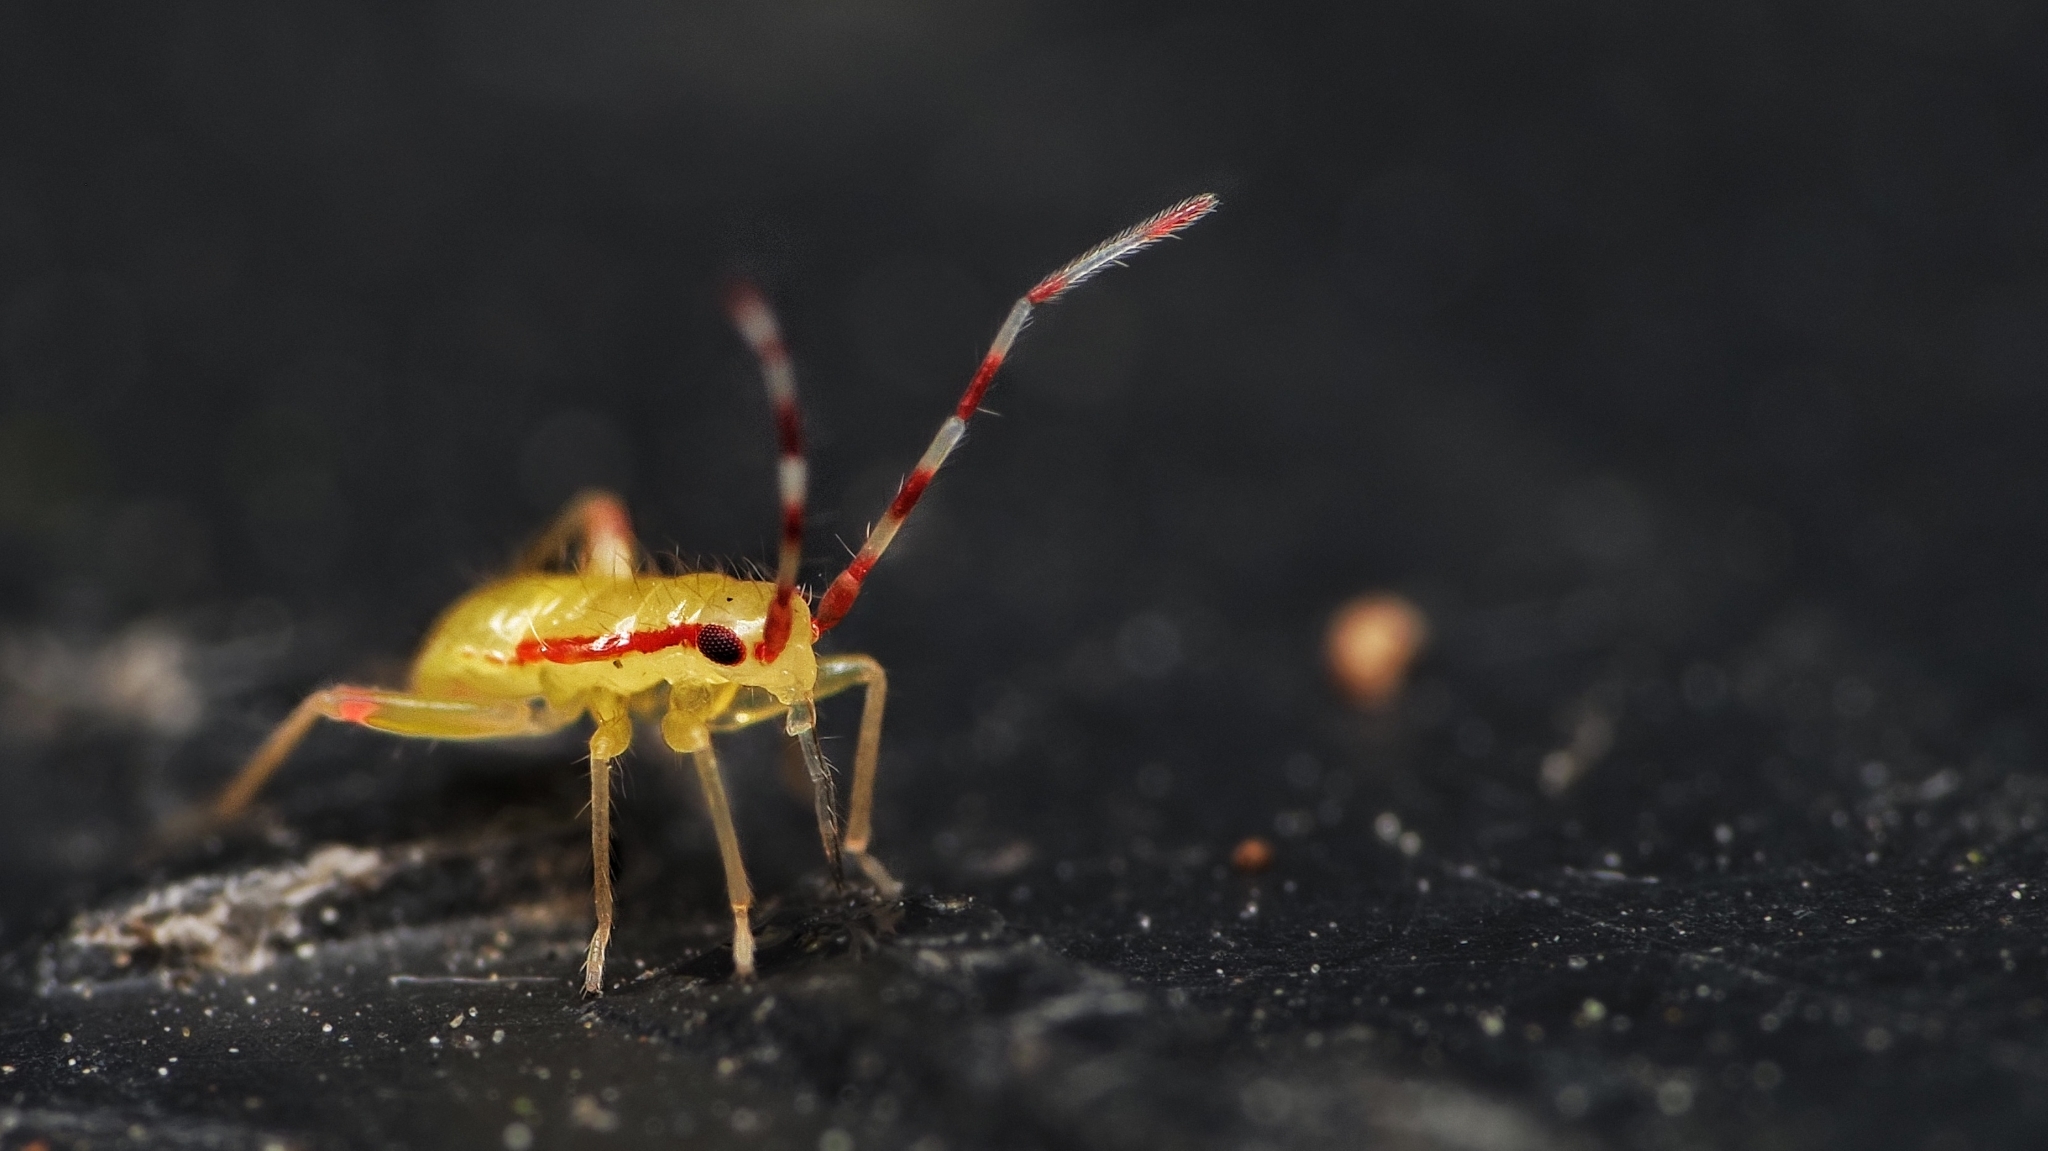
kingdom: Animalia
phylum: Arthropoda
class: Insecta
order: Hemiptera
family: Miridae
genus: Campyloneura
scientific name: Campyloneura virgula
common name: Predatory bug
